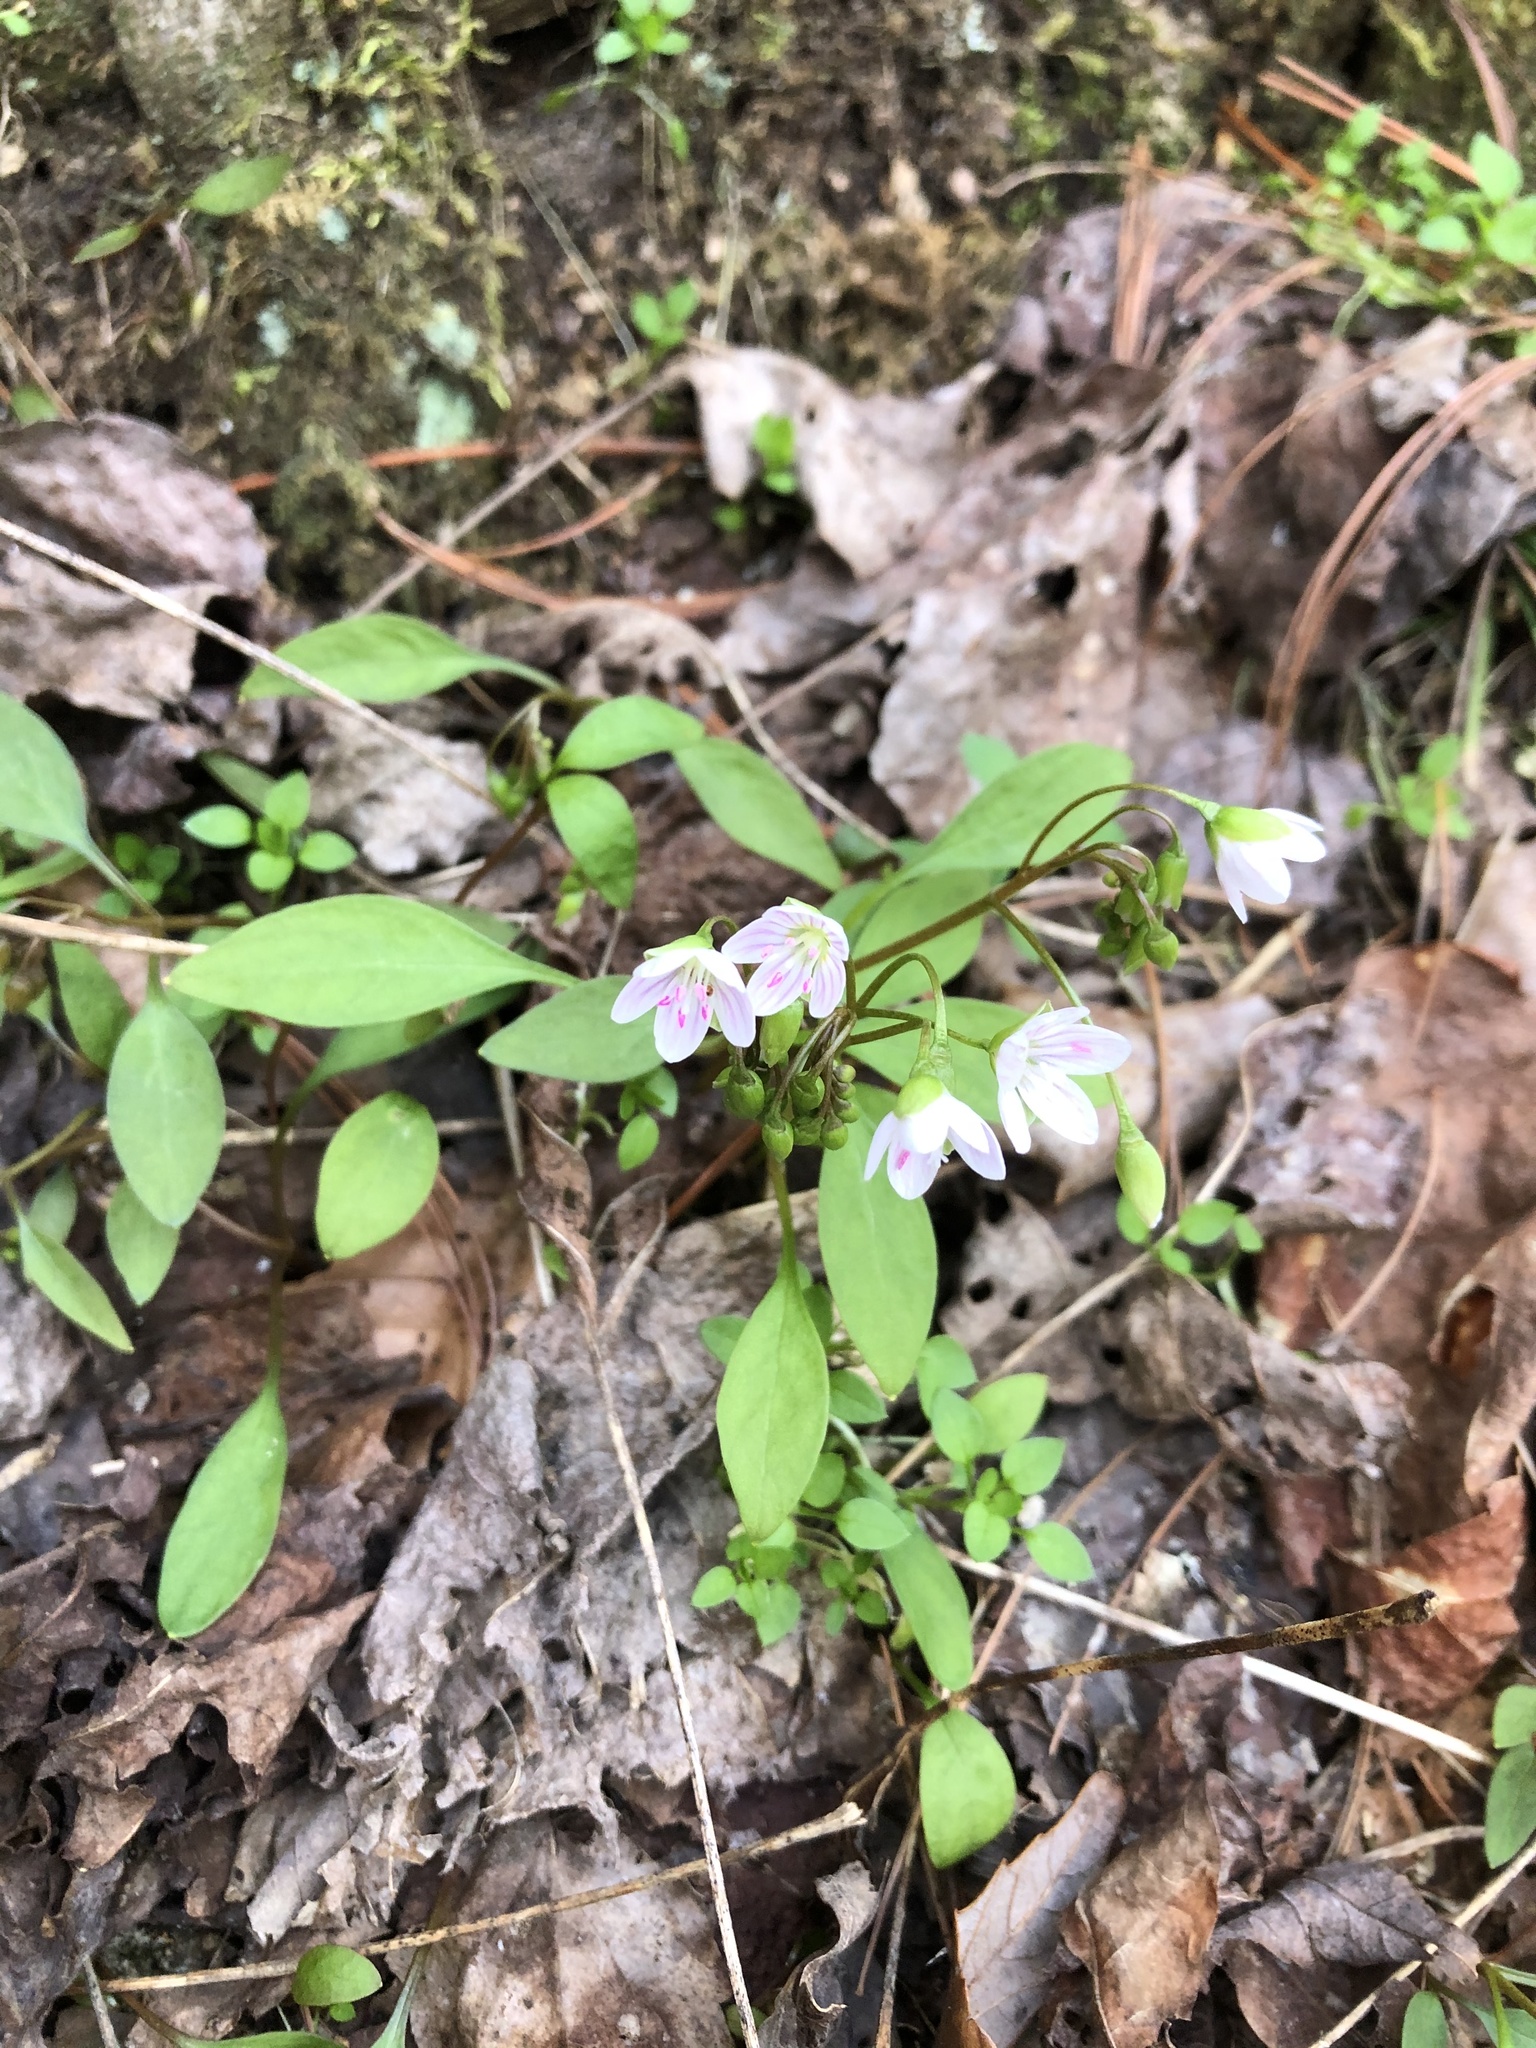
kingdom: Plantae
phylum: Tracheophyta
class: Magnoliopsida
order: Caryophyllales
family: Montiaceae
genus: Claytonia
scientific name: Claytonia caroliniana
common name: Carolina spring beauty
